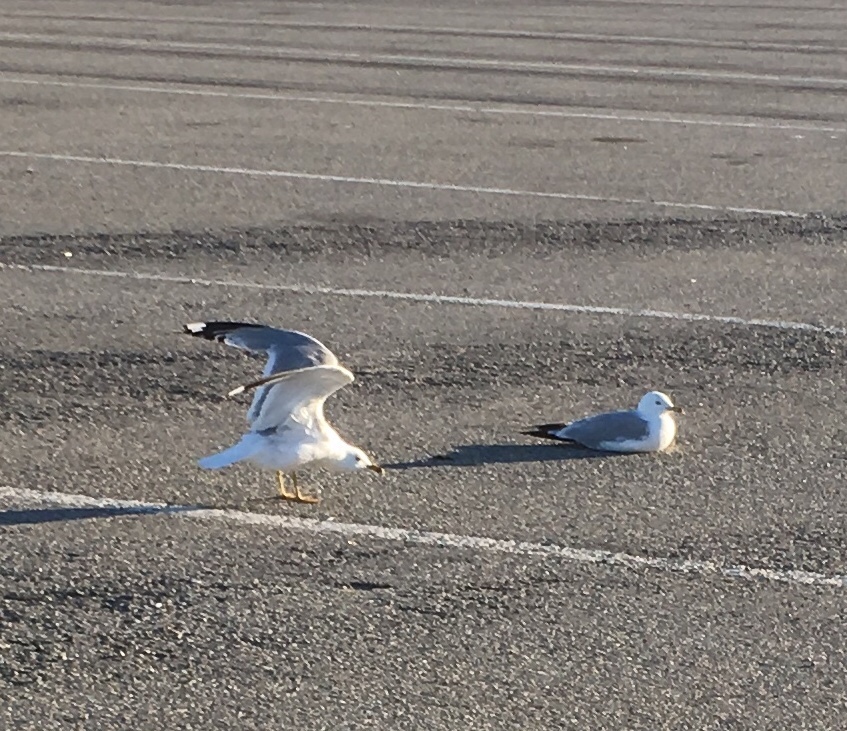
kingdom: Animalia
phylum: Chordata
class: Aves
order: Charadriiformes
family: Laridae
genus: Larus
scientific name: Larus delawarensis
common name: Ring-billed gull
